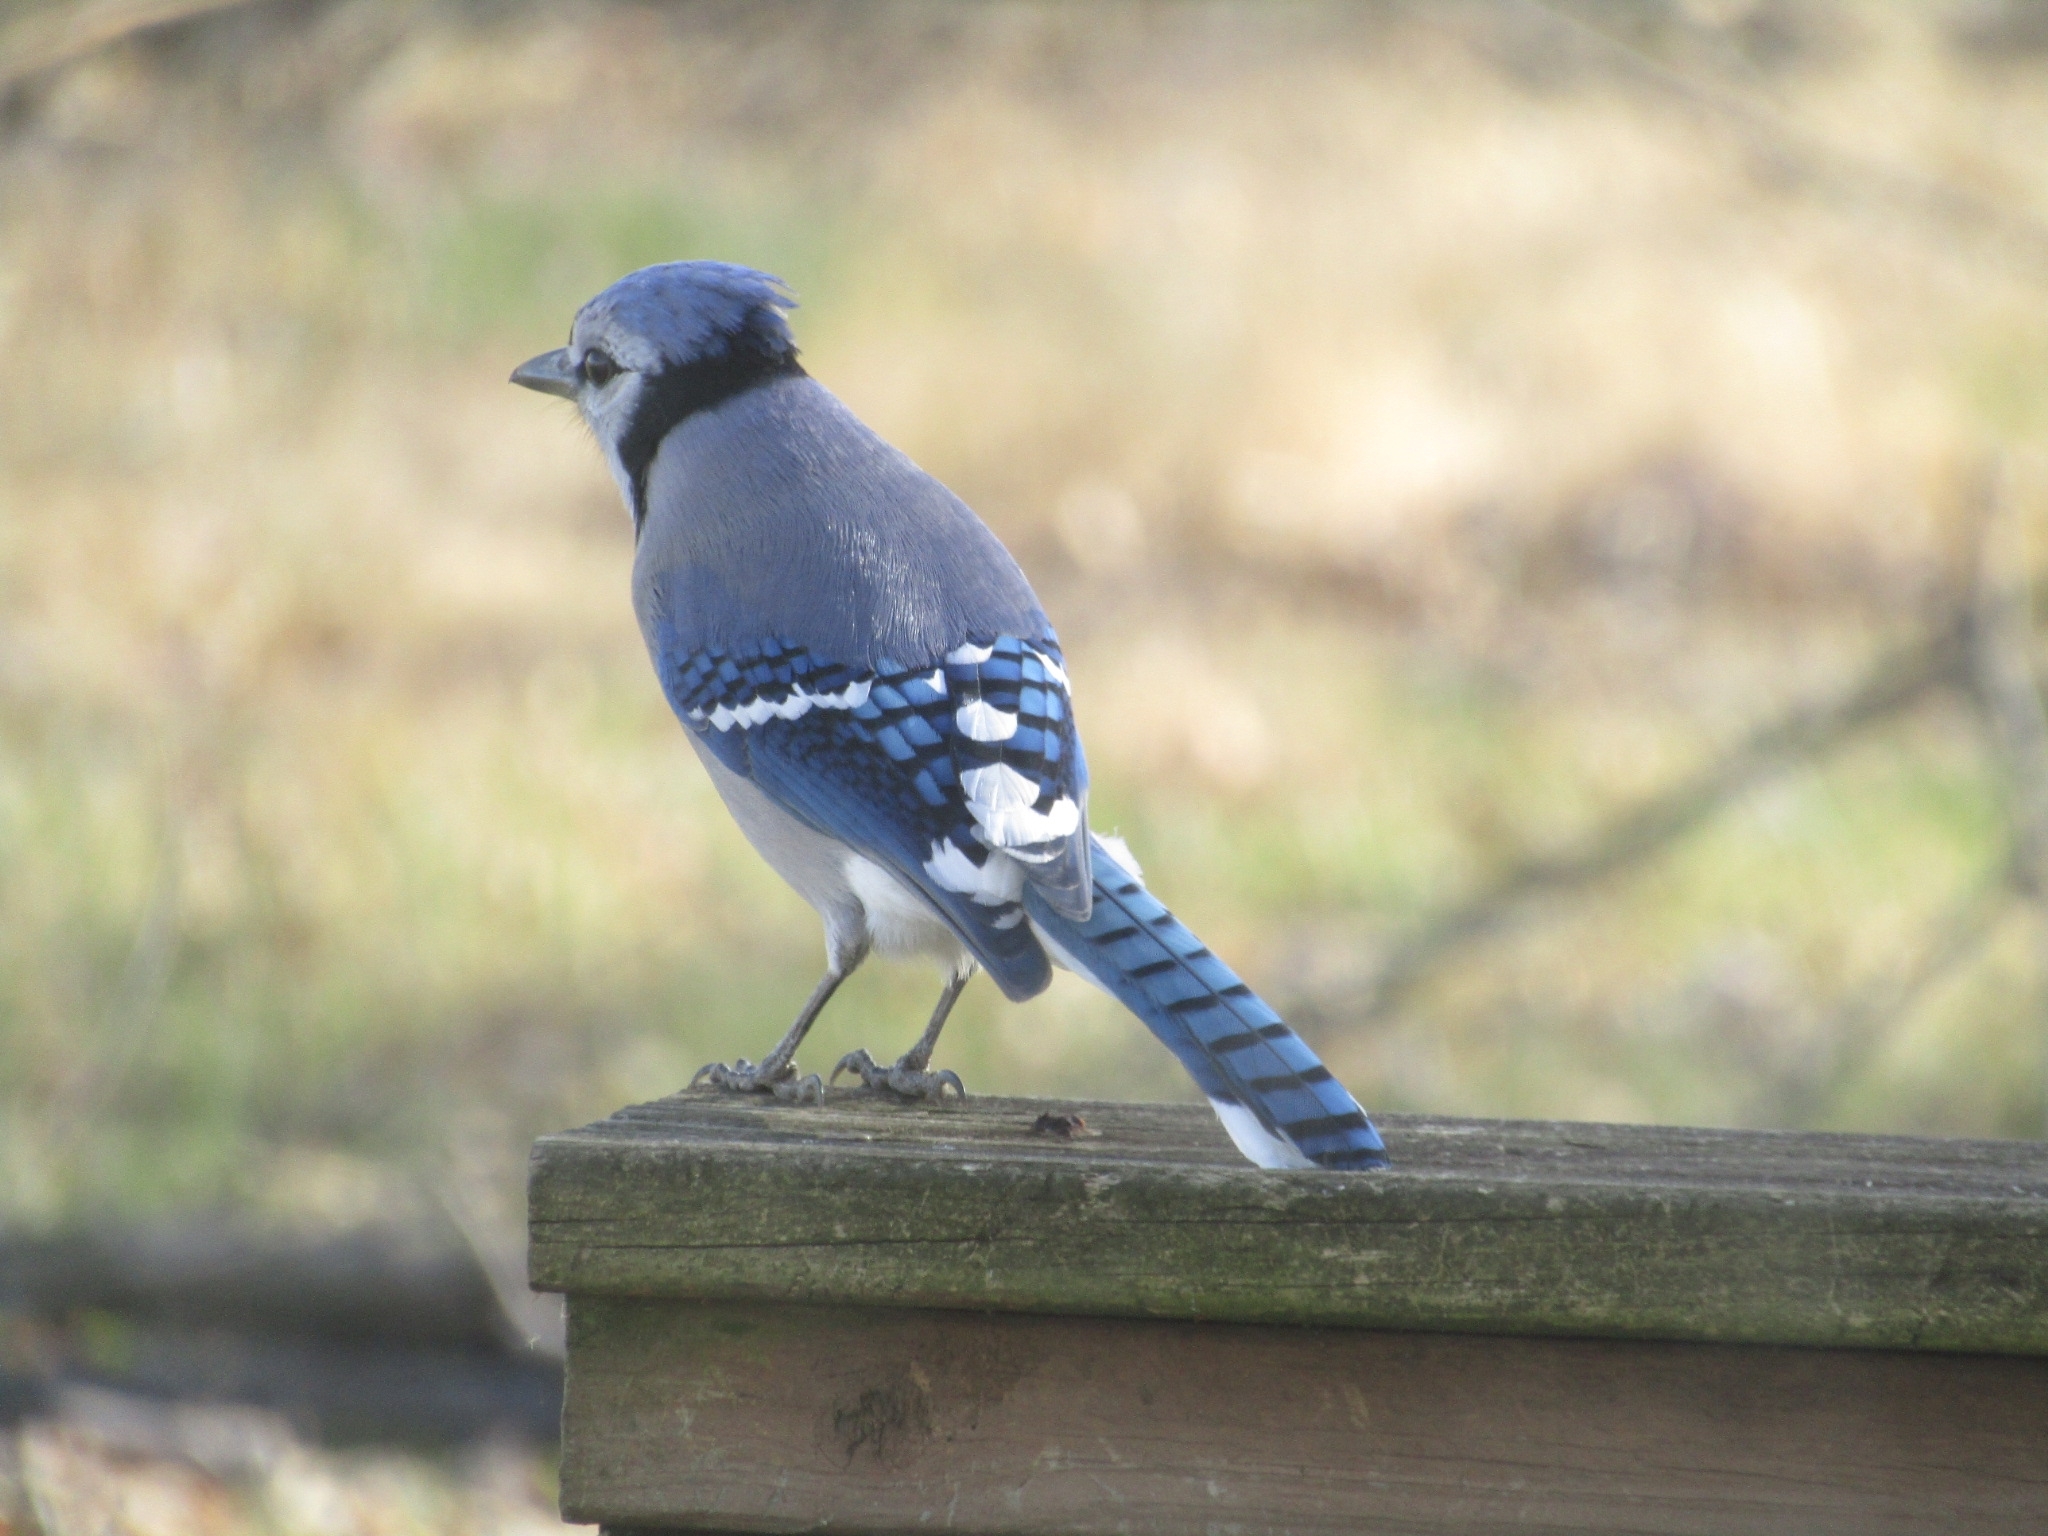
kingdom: Animalia
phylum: Chordata
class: Aves
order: Passeriformes
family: Corvidae
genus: Cyanocitta
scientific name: Cyanocitta cristata
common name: Blue jay
